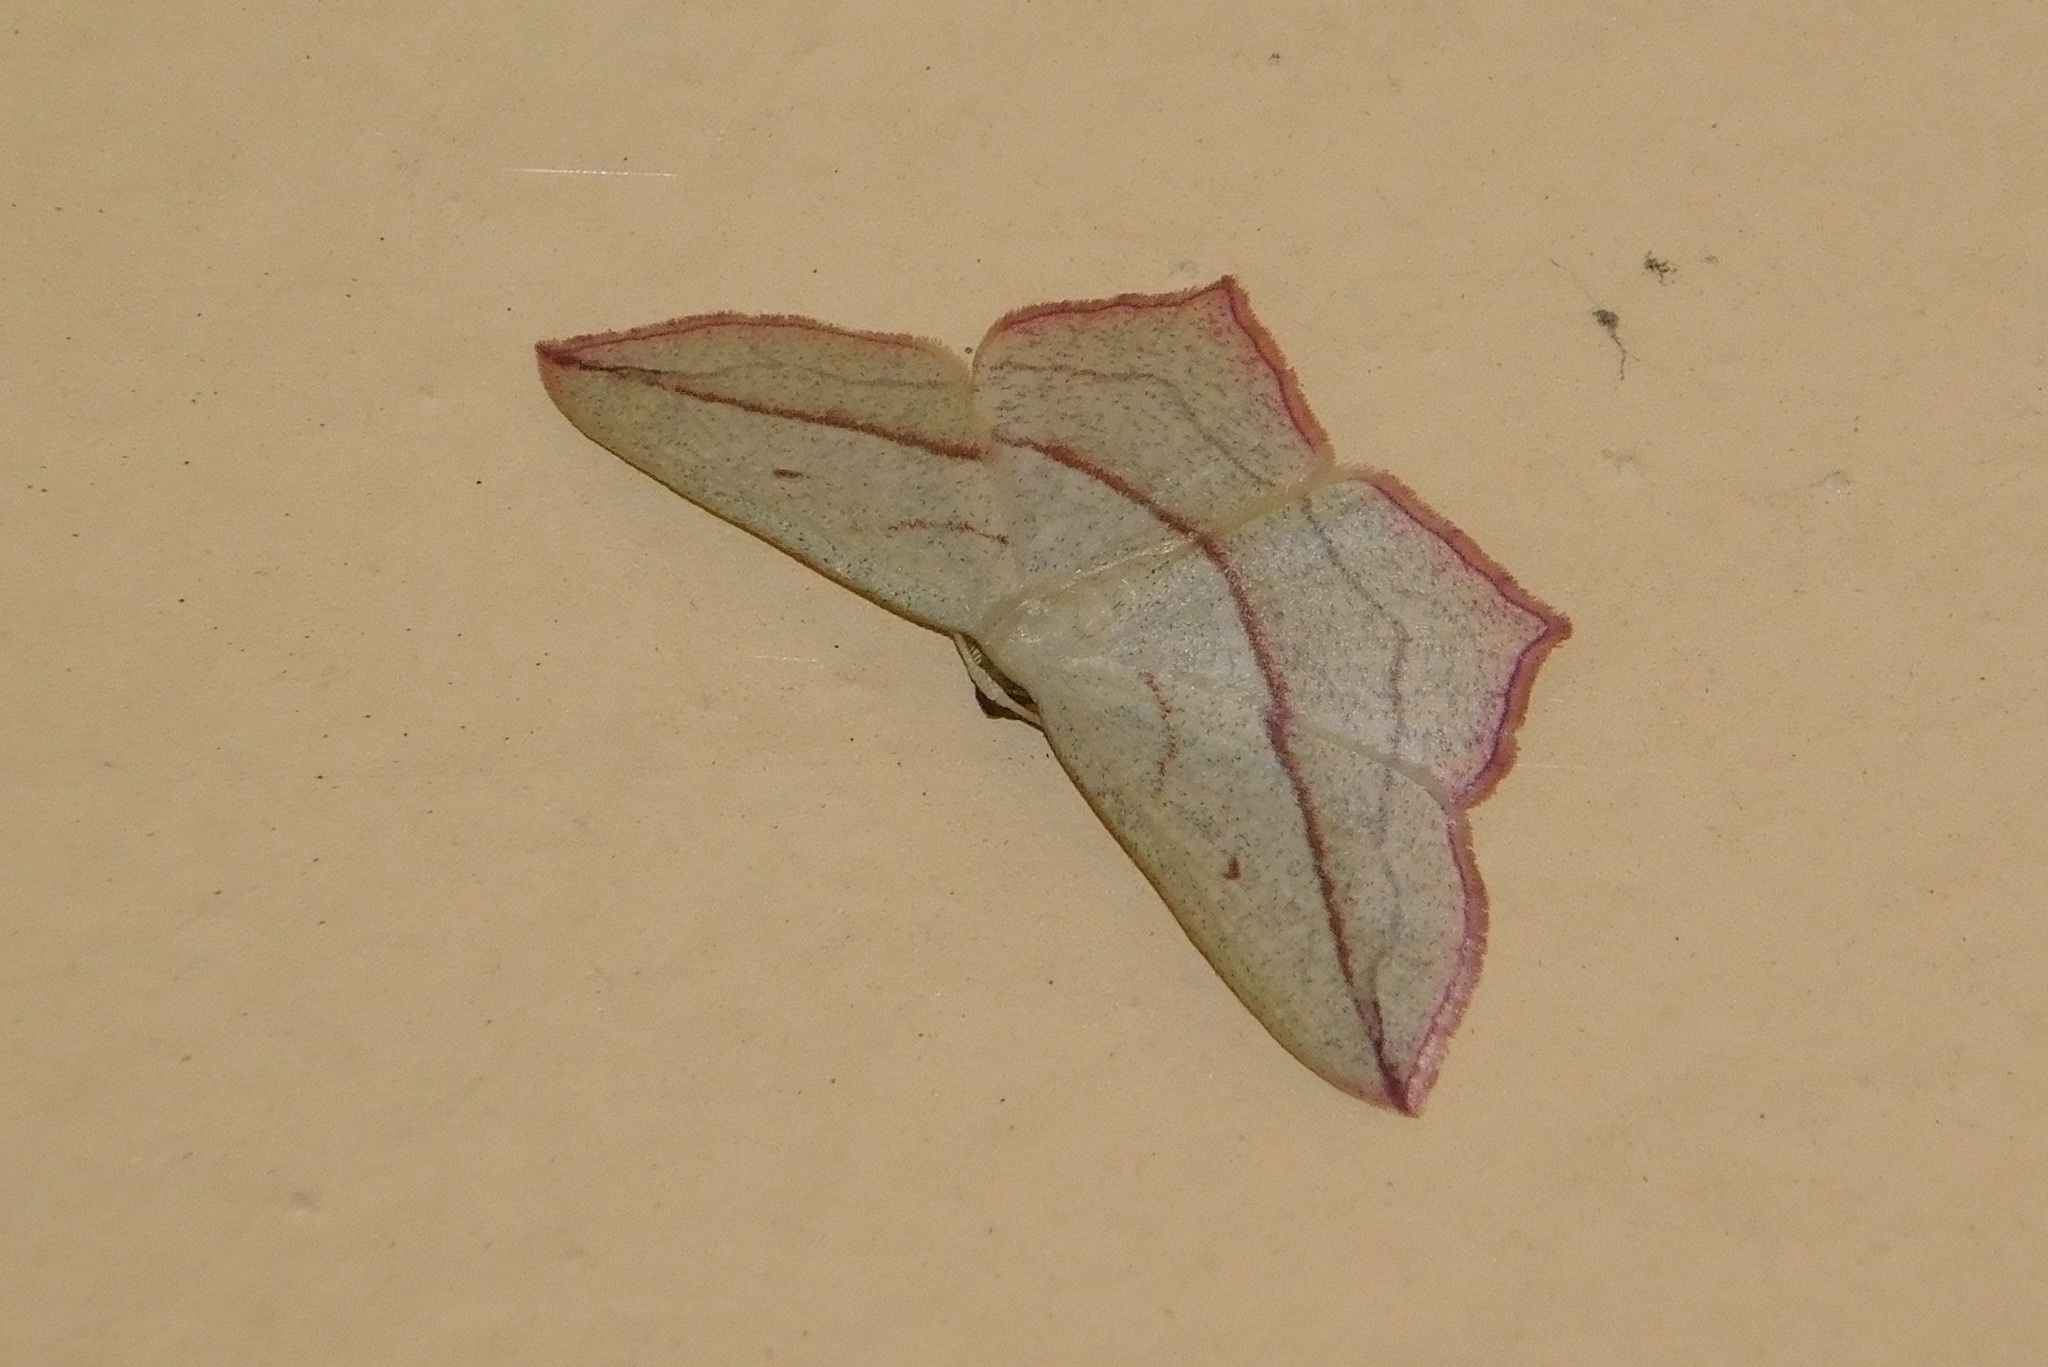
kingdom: Animalia
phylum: Arthropoda
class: Insecta
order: Lepidoptera
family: Geometridae
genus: Timandra
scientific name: Timandra comae
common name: Blood-vein
